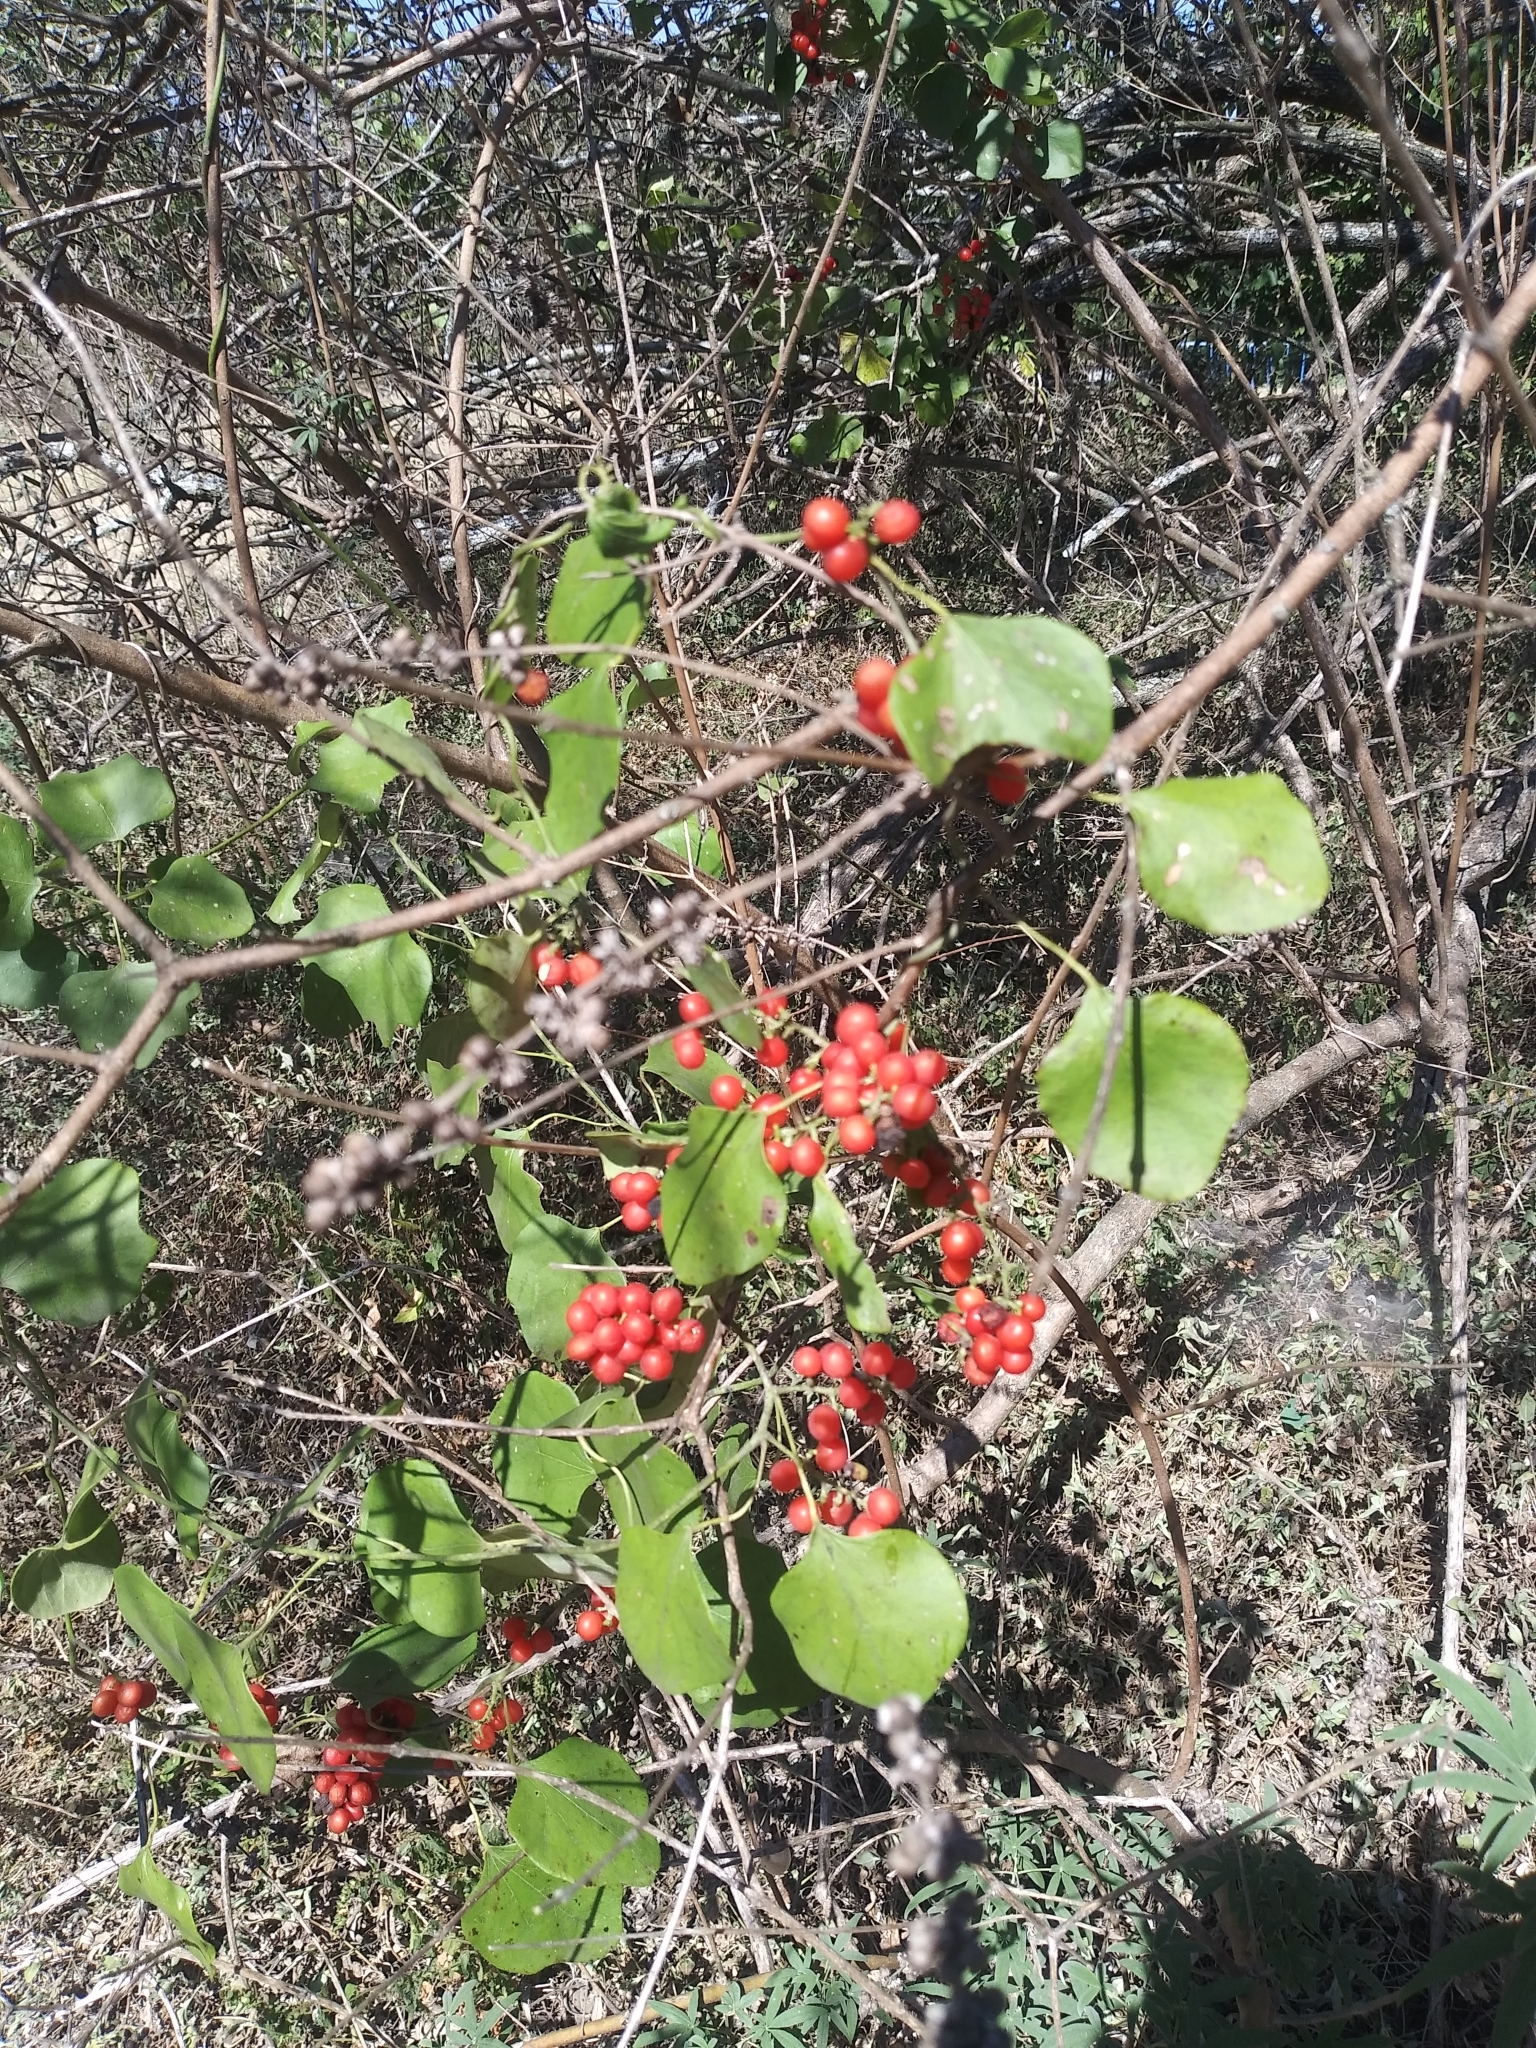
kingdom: Plantae
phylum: Tracheophyta
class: Magnoliopsida
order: Ranunculales
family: Menispermaceae
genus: Cocculus
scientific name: Cocculus carolinus
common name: Carolina moonseed
